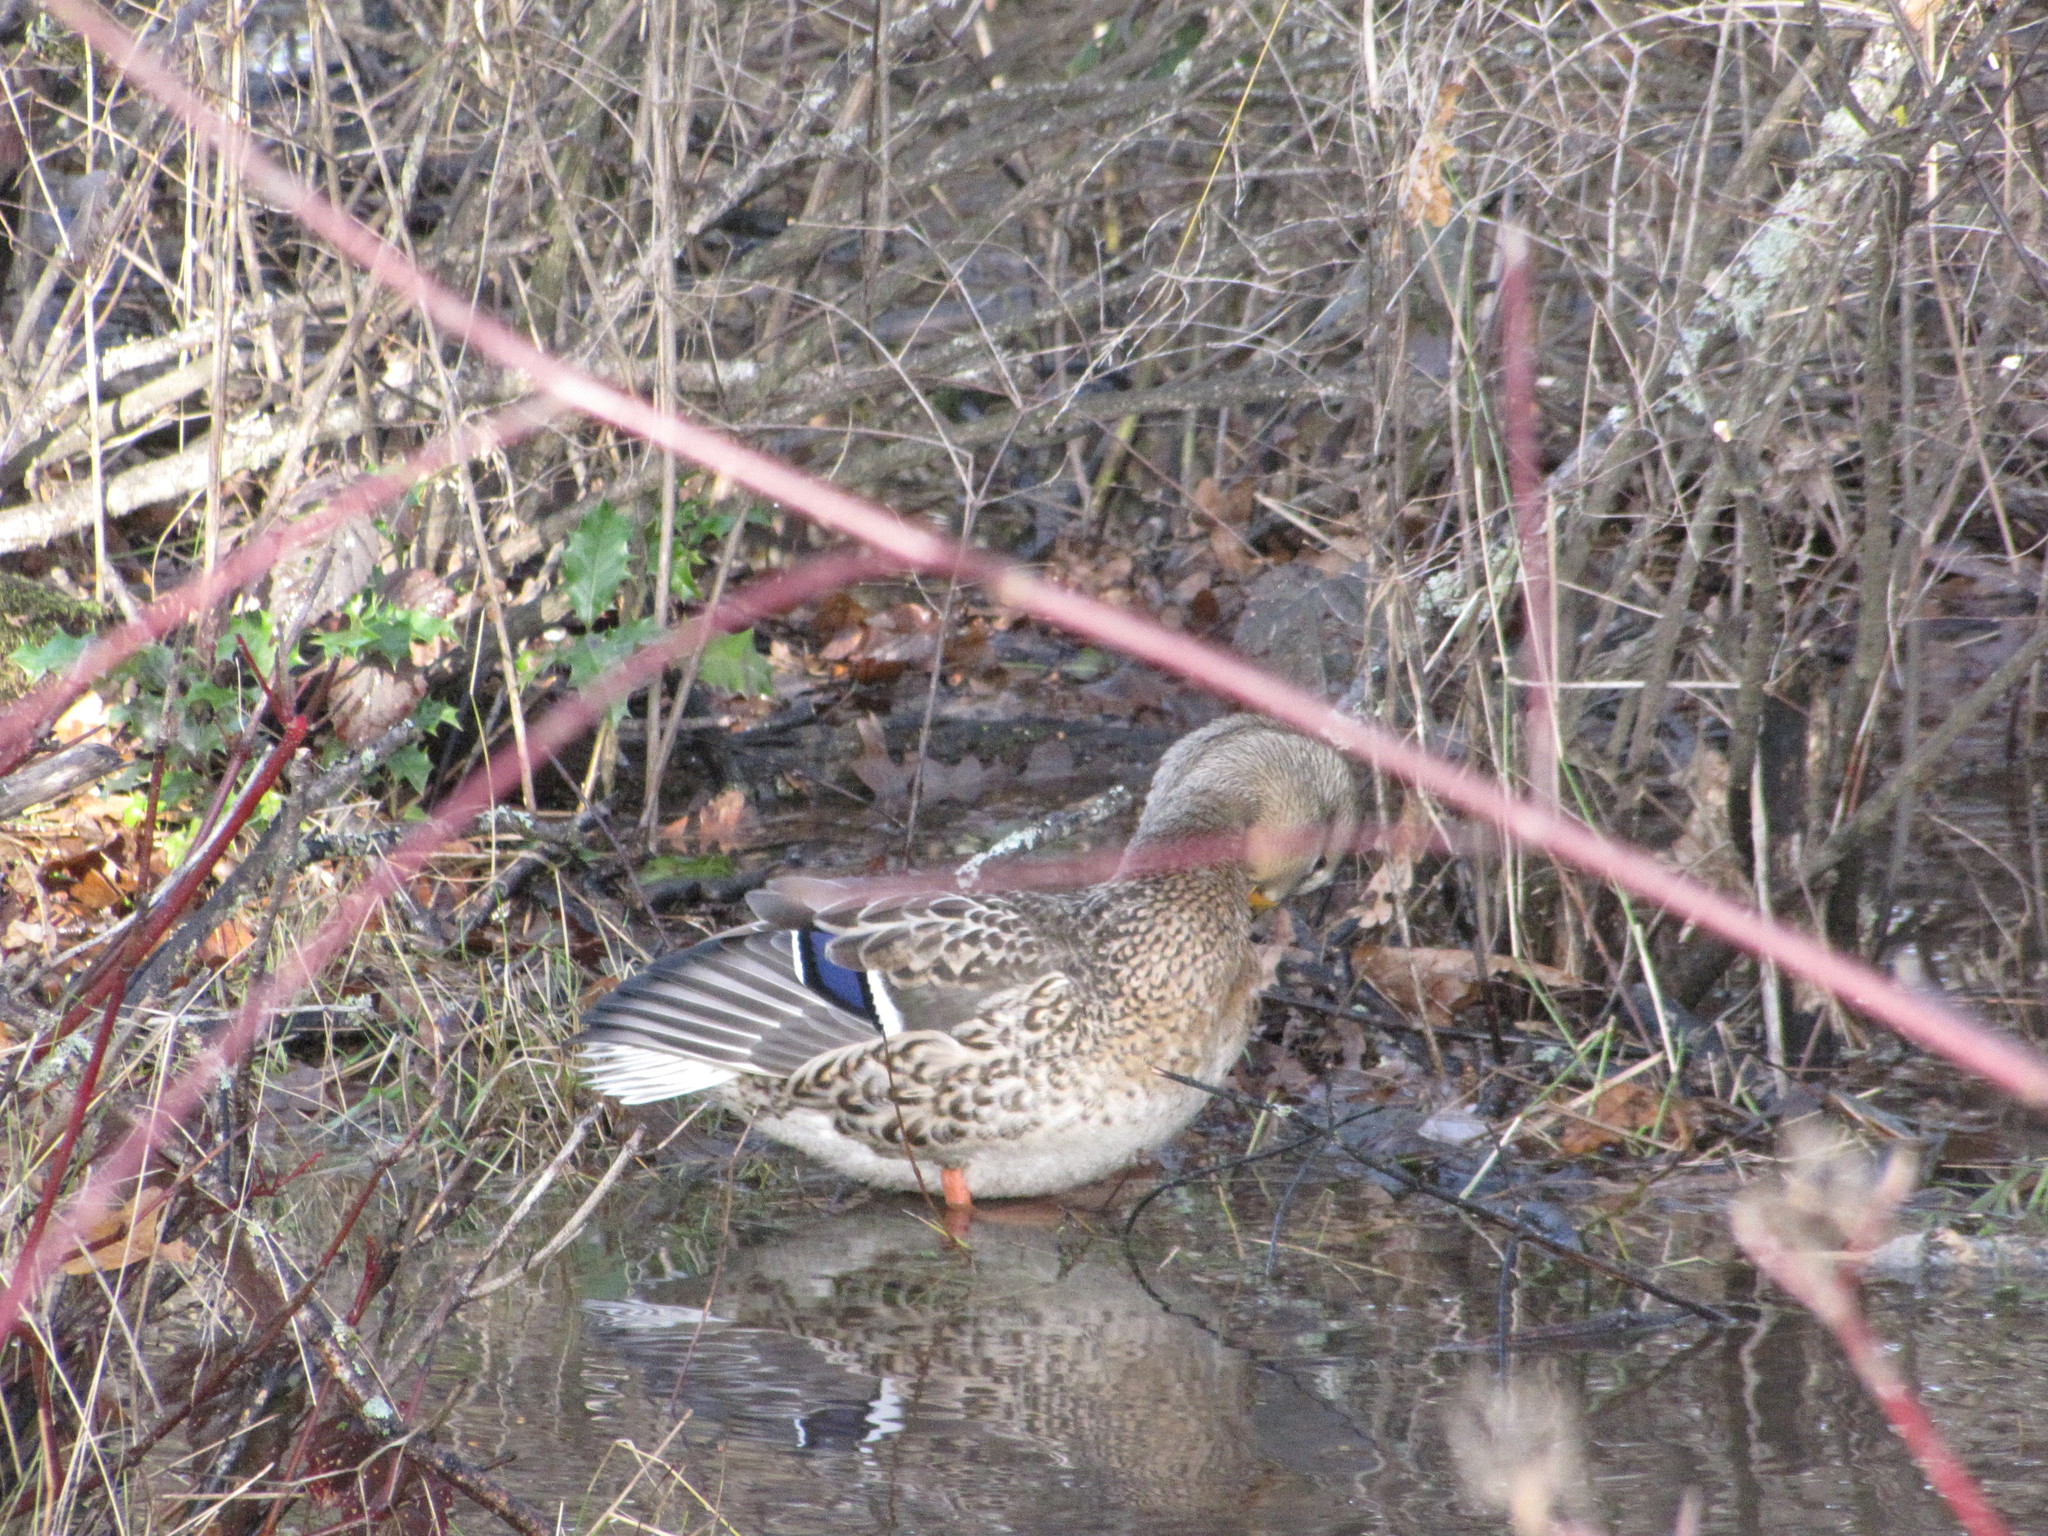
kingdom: Animalia
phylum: Chordata
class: Aves
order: Anseriformes
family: Anatidae
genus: Anas
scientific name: Anas platyrhynchos
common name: Mallard
